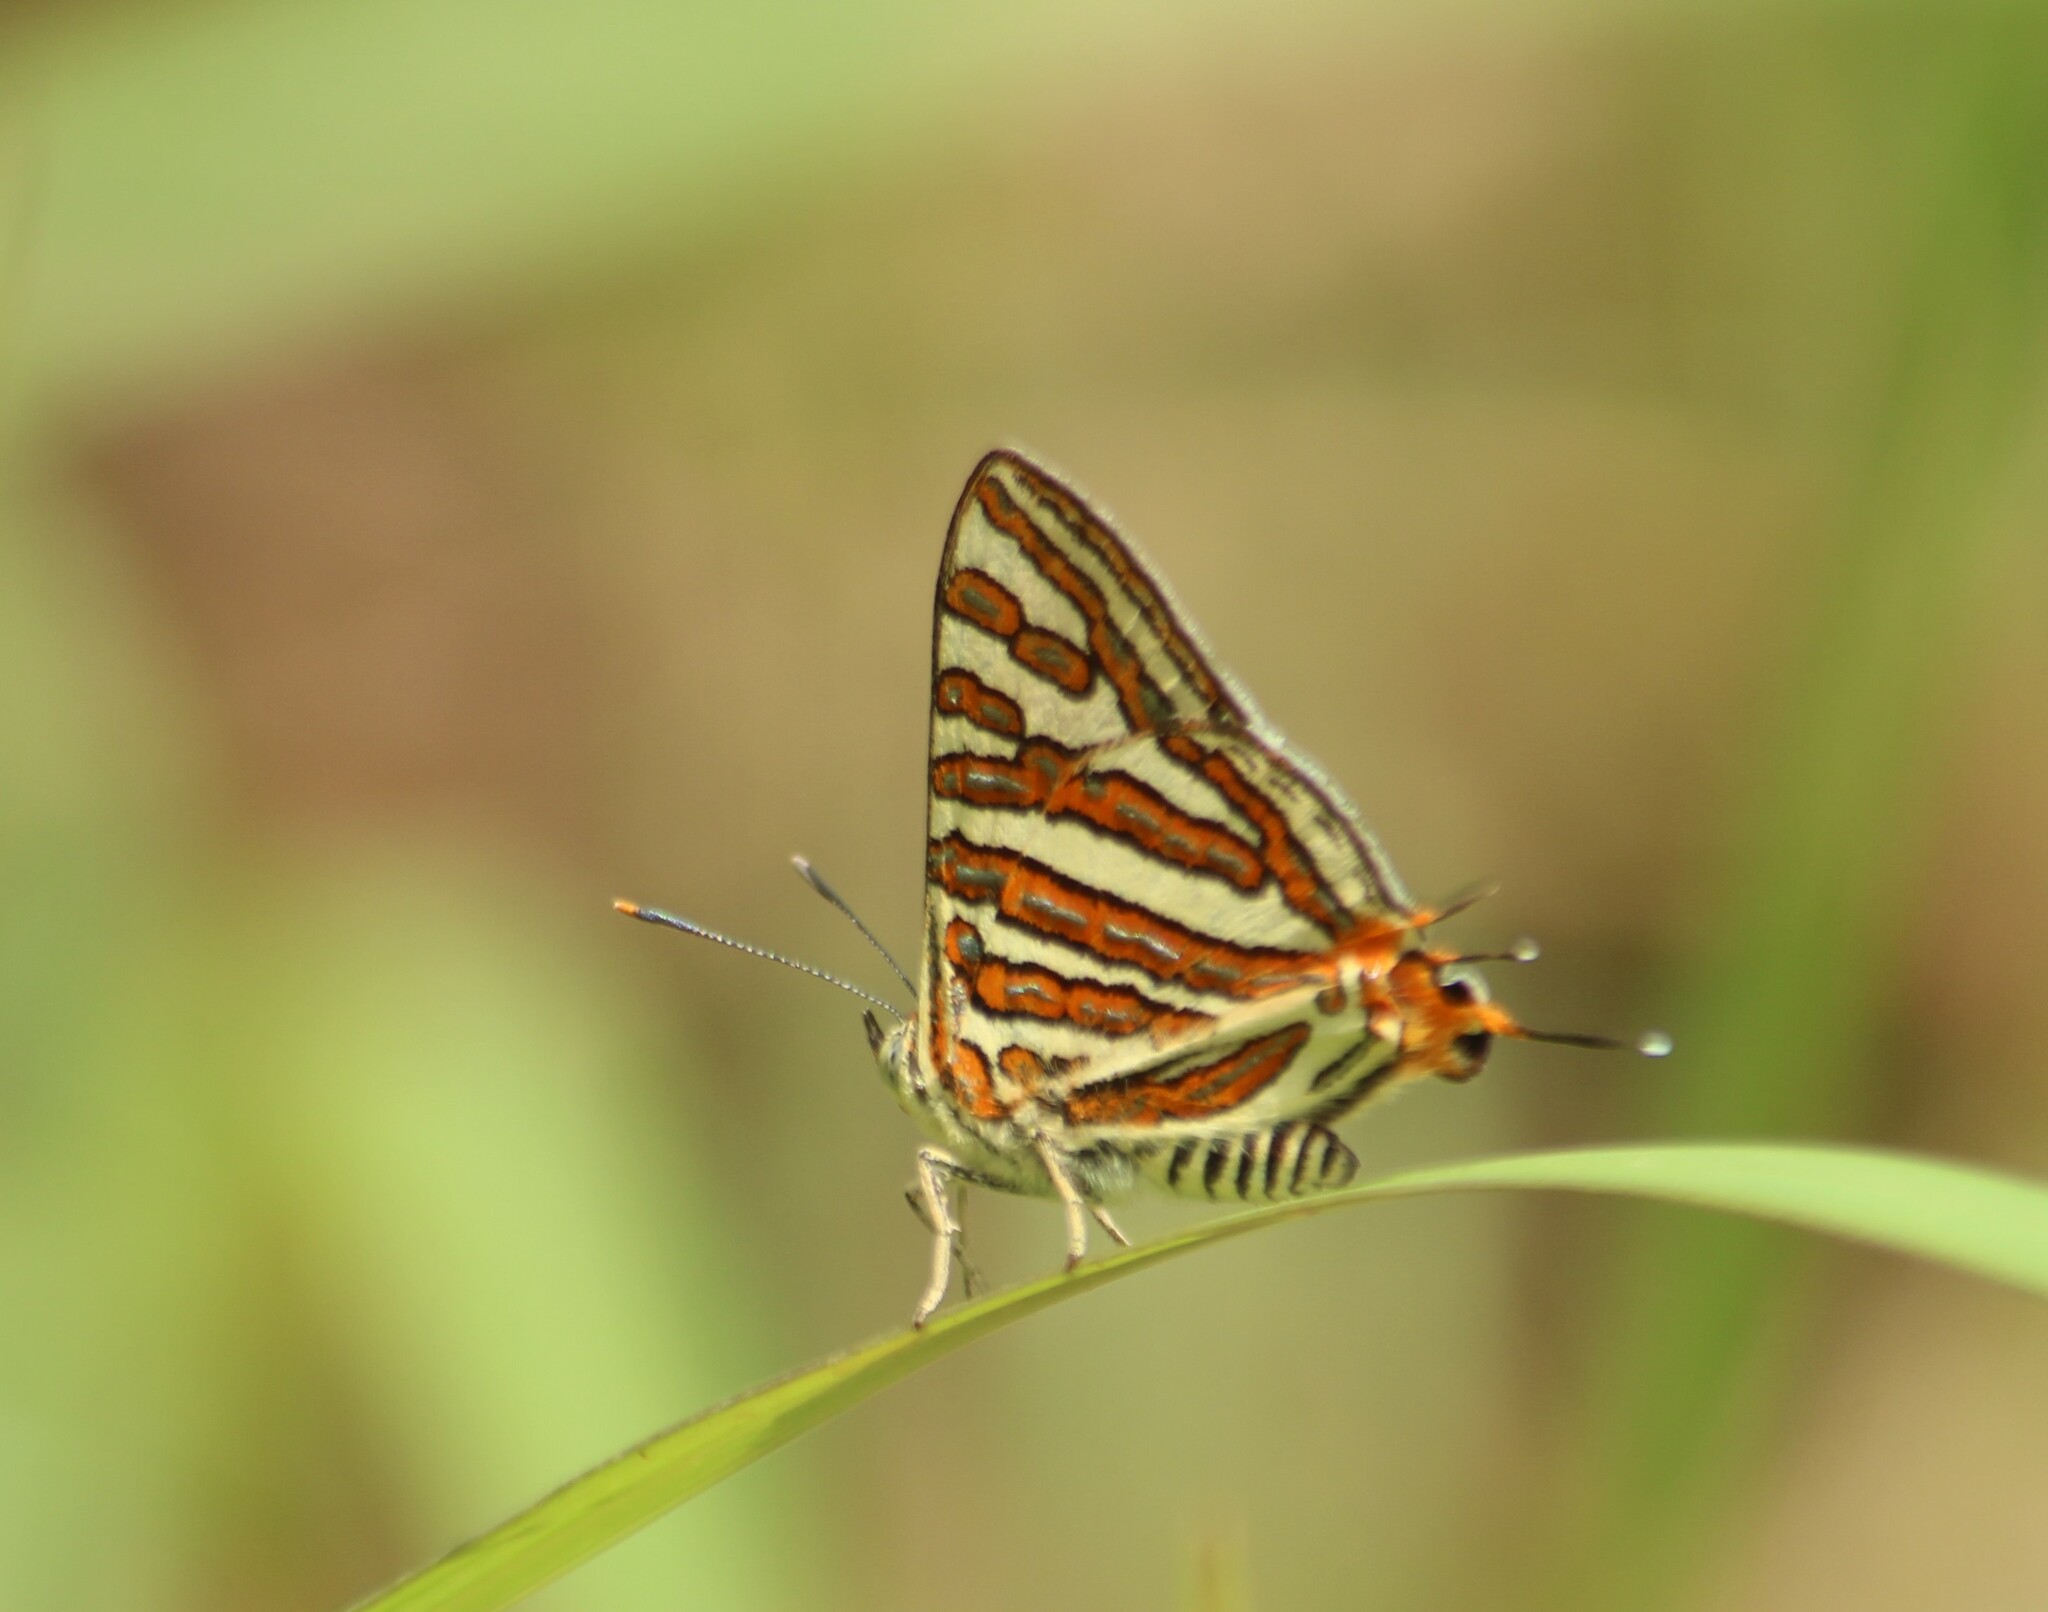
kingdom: Animalia
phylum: Arthropoda
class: Insecta
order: Lepidoptera
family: Lycaenidae
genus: Cigaritis
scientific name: Cigaritis vulcanus
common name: Common silverline
